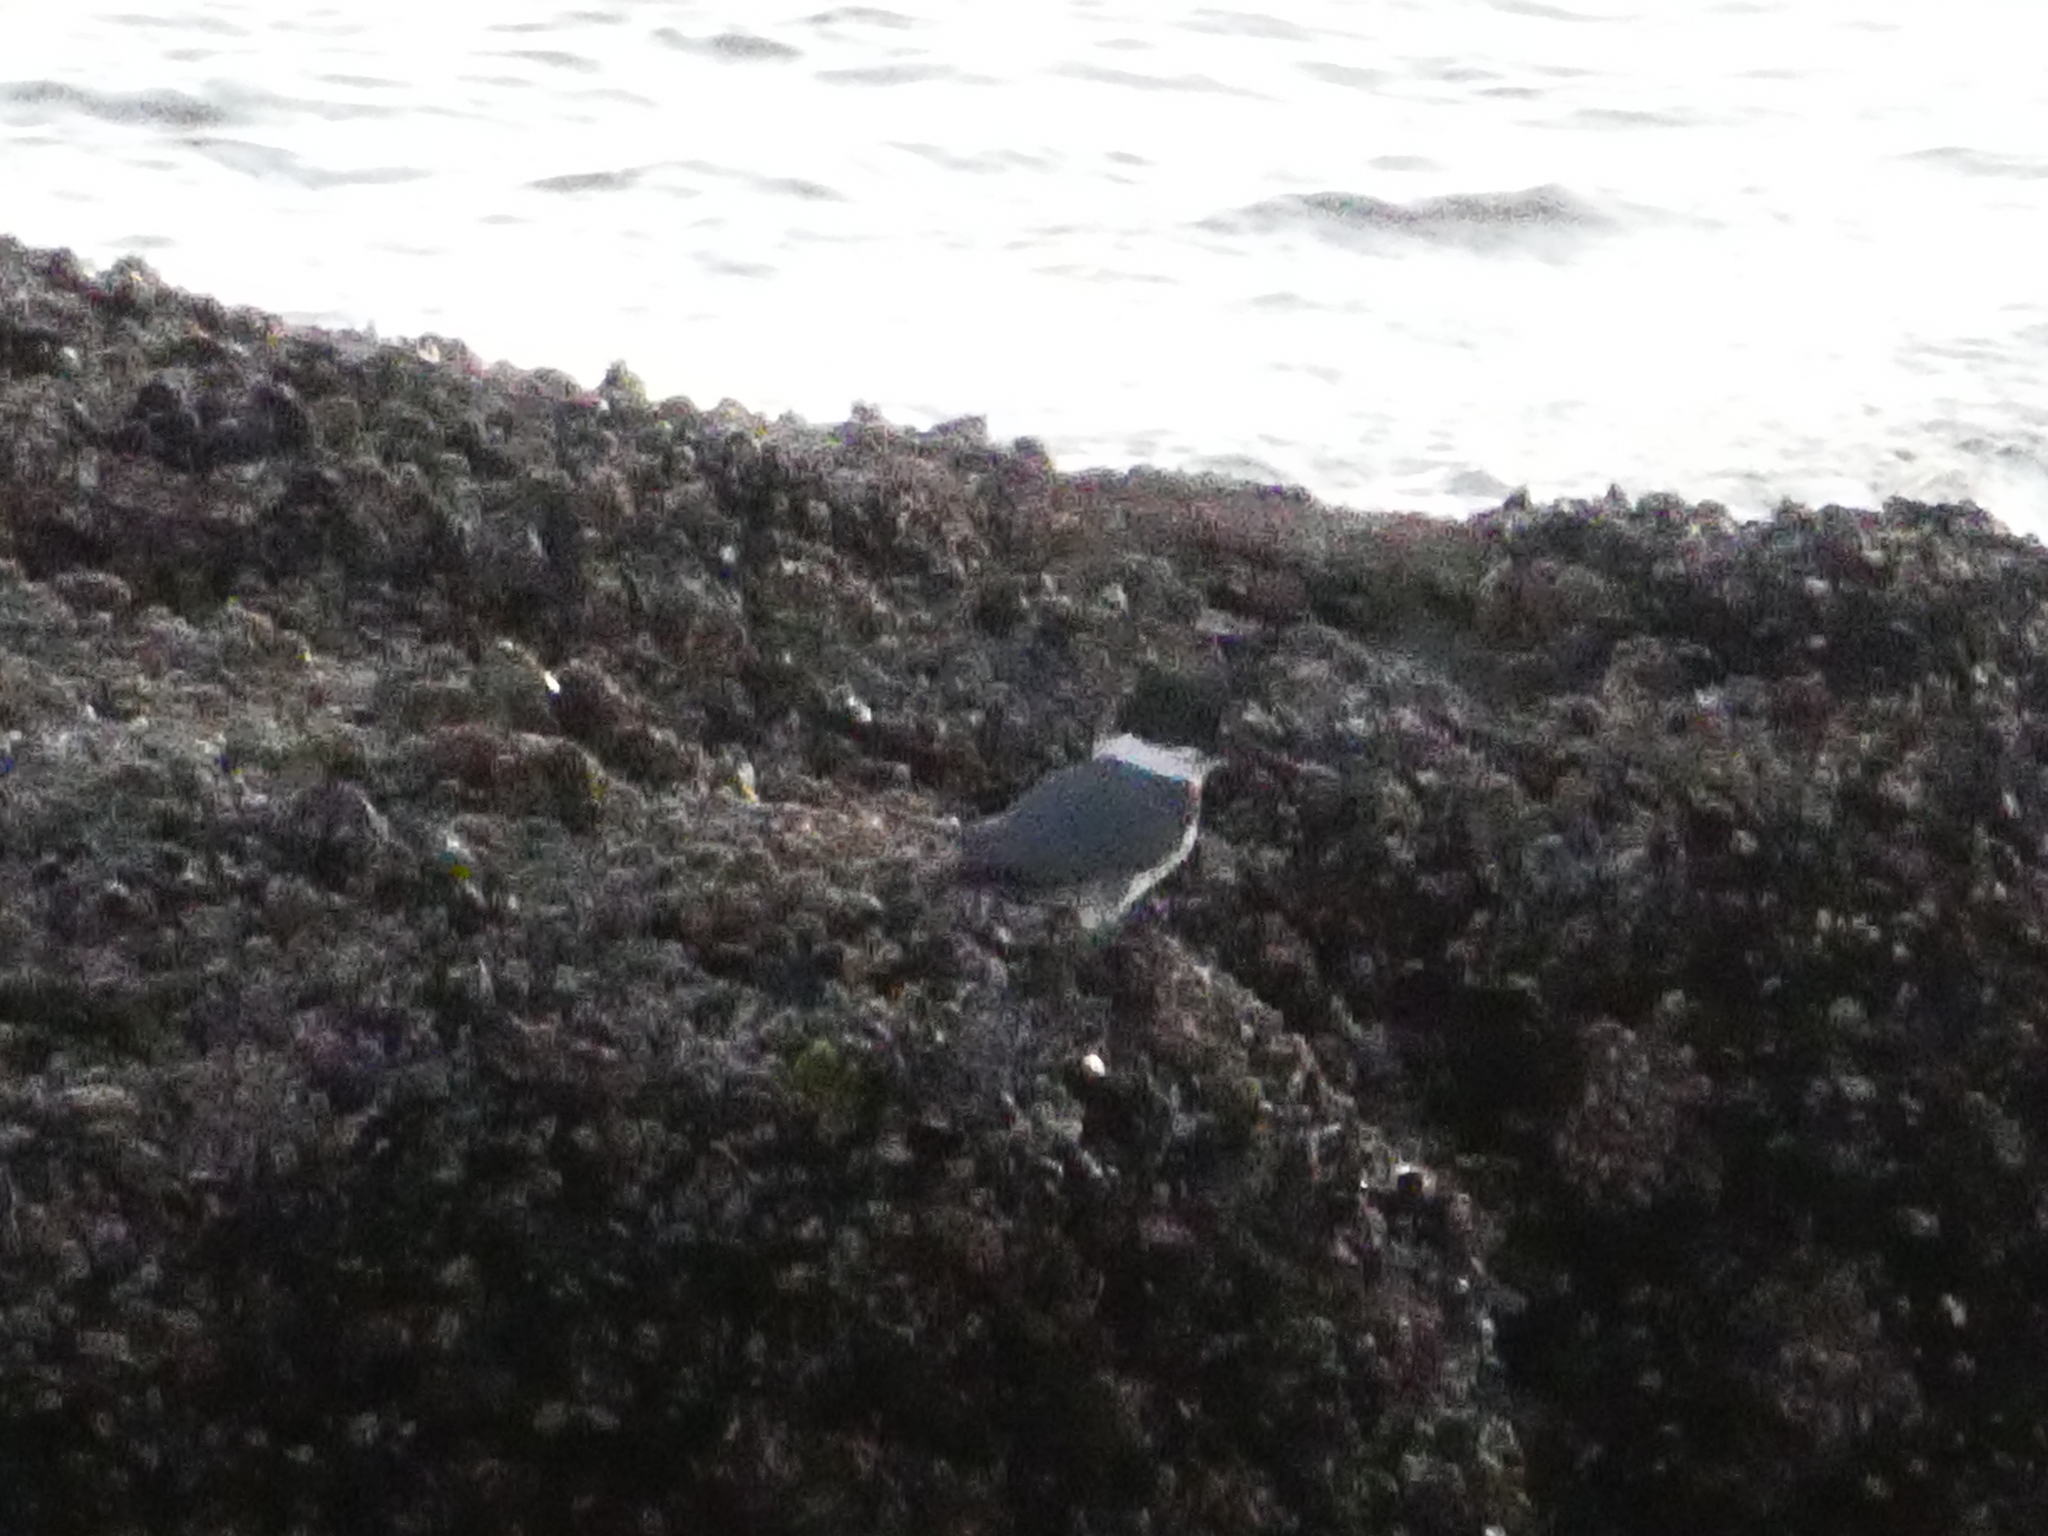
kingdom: Animalia
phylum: Chordata
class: Aves
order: Coraciiformes
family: Alcedinidae
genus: Megaceryle
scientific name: Megaceryle alcyon
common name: Belted kingfisher
